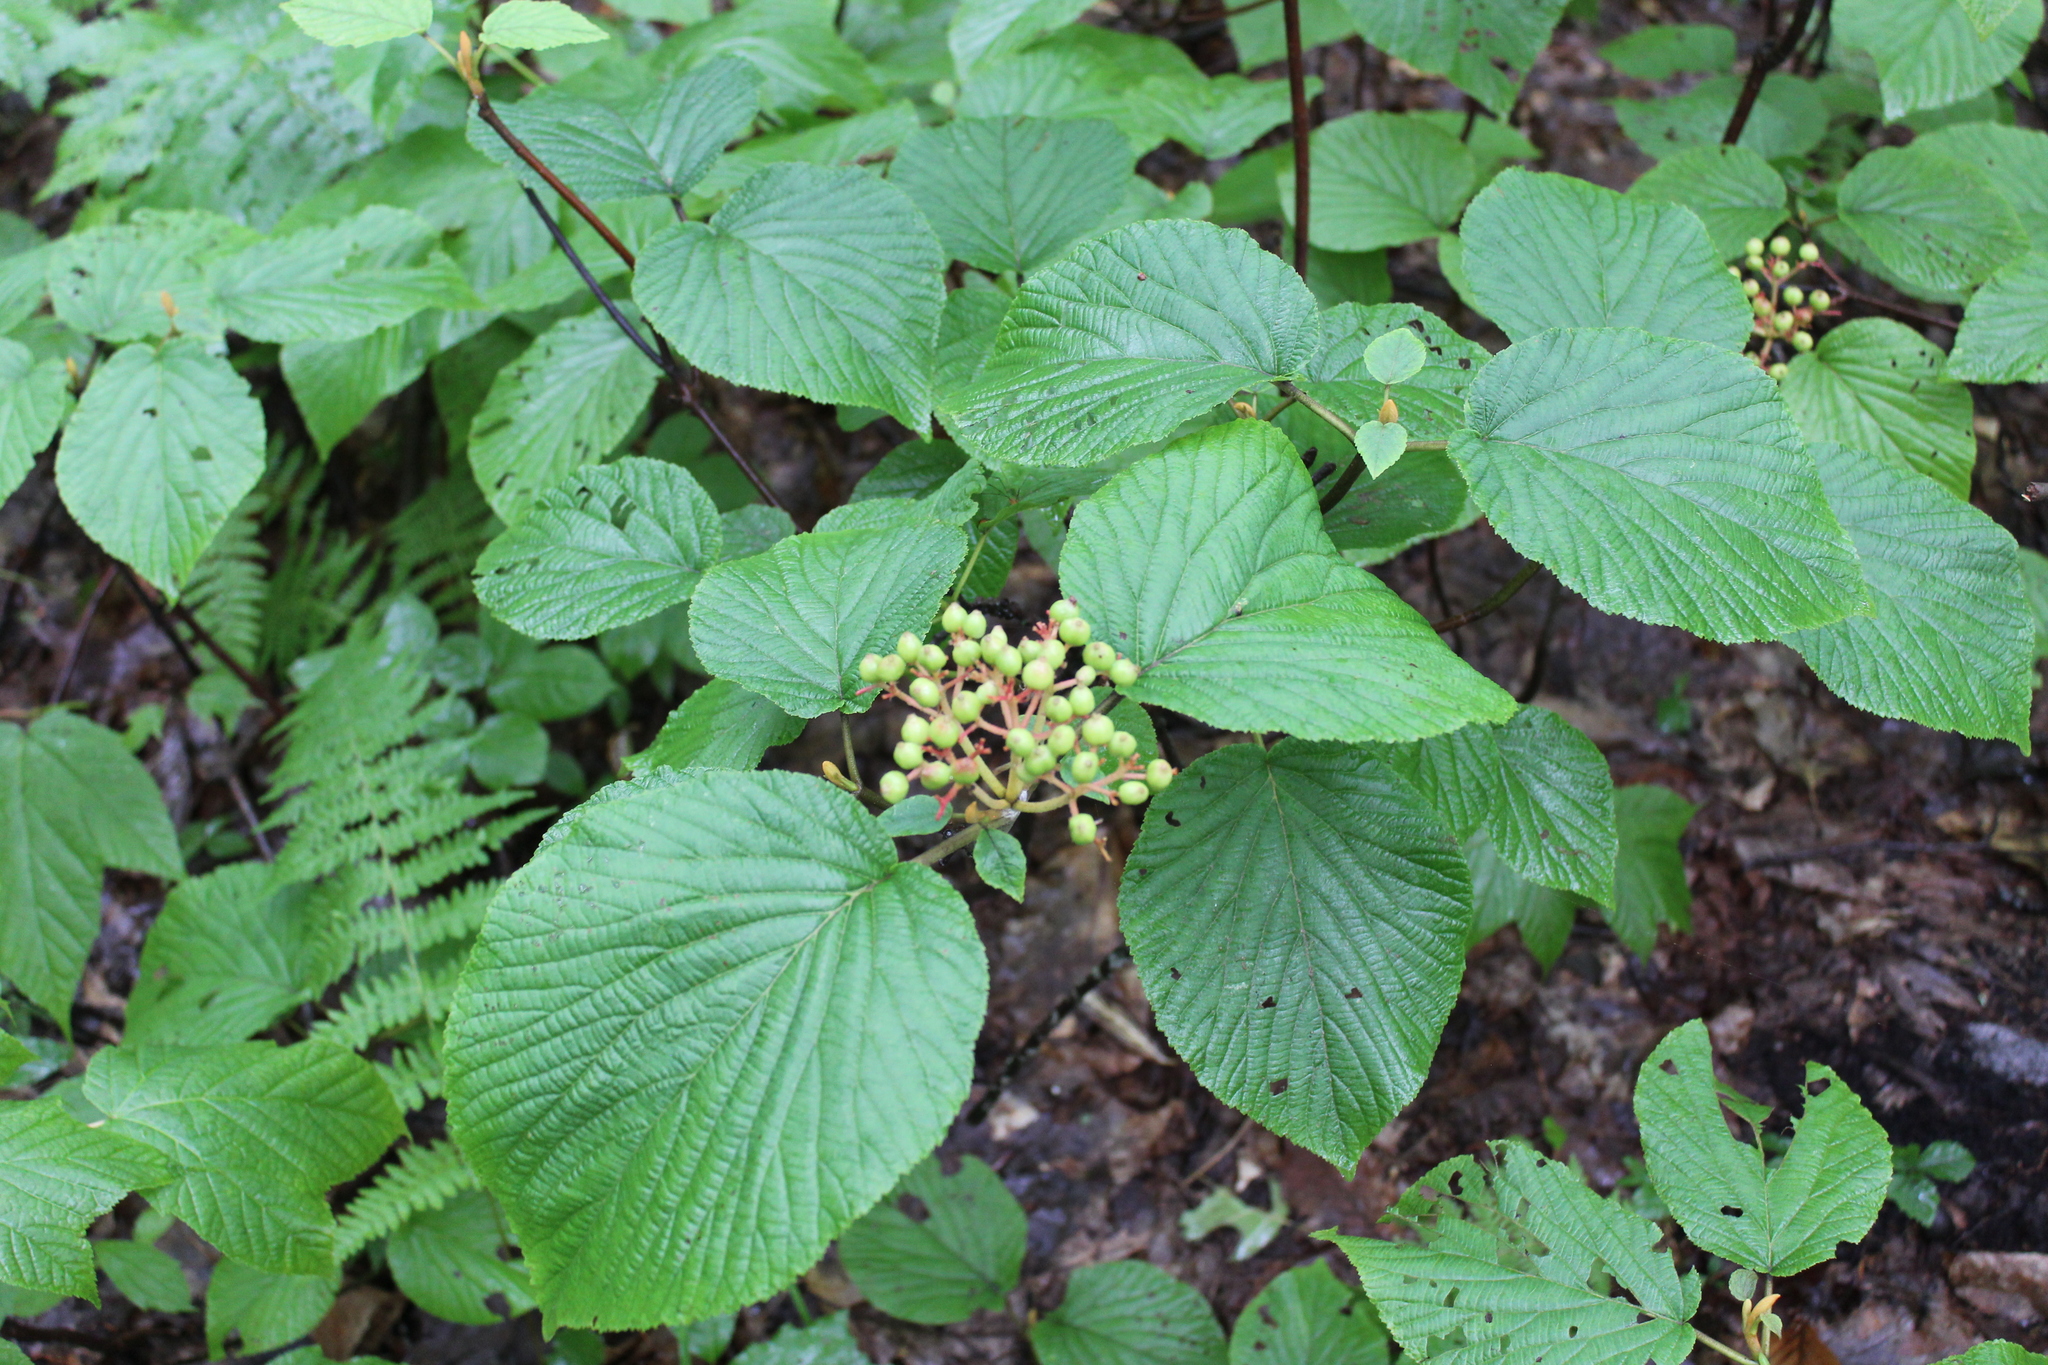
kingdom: Plantae
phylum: Tracheophyta
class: Magnoliopsida
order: Dipsacales
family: Viburnaceae
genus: Viburnum
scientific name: Viburnum lantanoides
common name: Hobblebush
